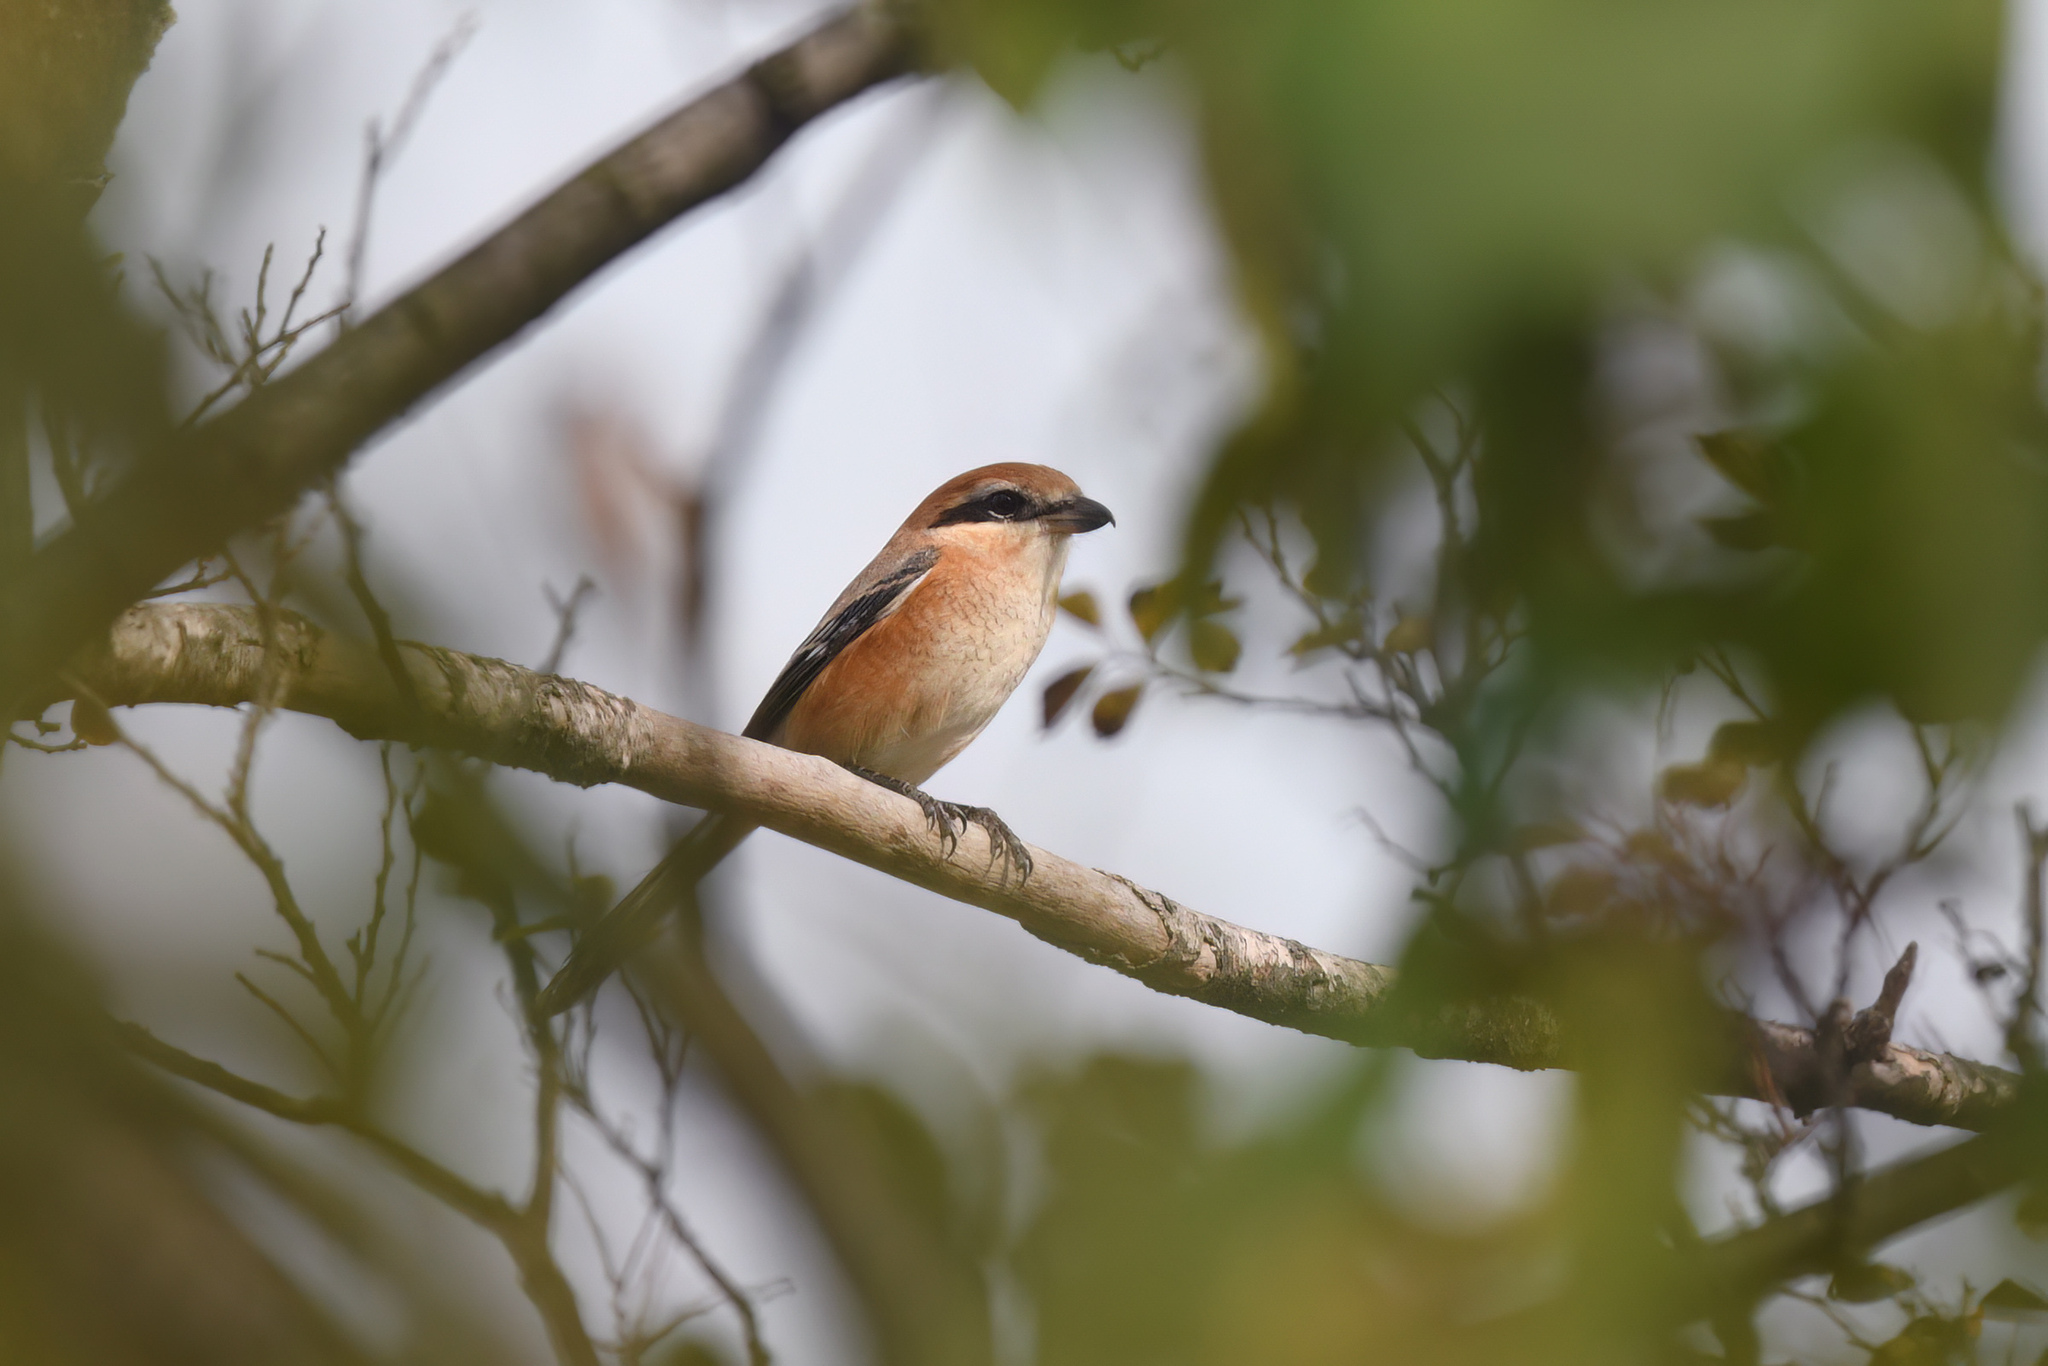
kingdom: Animalia
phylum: Chordata
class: Aves
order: Passeriformes
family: Laniidae
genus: Lanius
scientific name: Lanius bucephalus
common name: Bull-headed shrike
